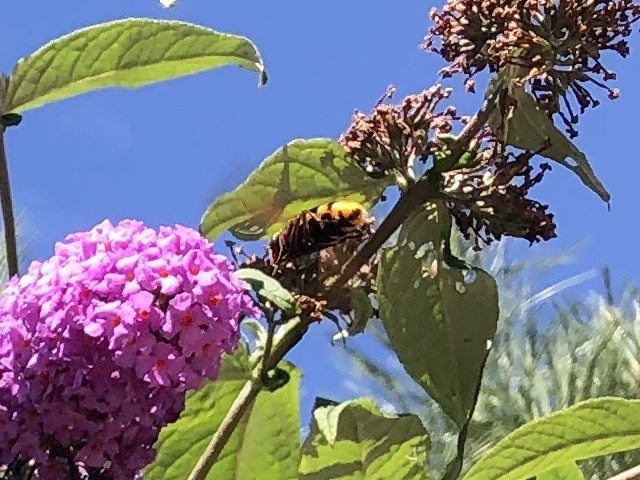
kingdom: Animalia
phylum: Arthropoda
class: Insecta
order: Diptera
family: Syrphidae
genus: Volucella
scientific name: Volucella zonaria
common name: Hornet hoverfly
